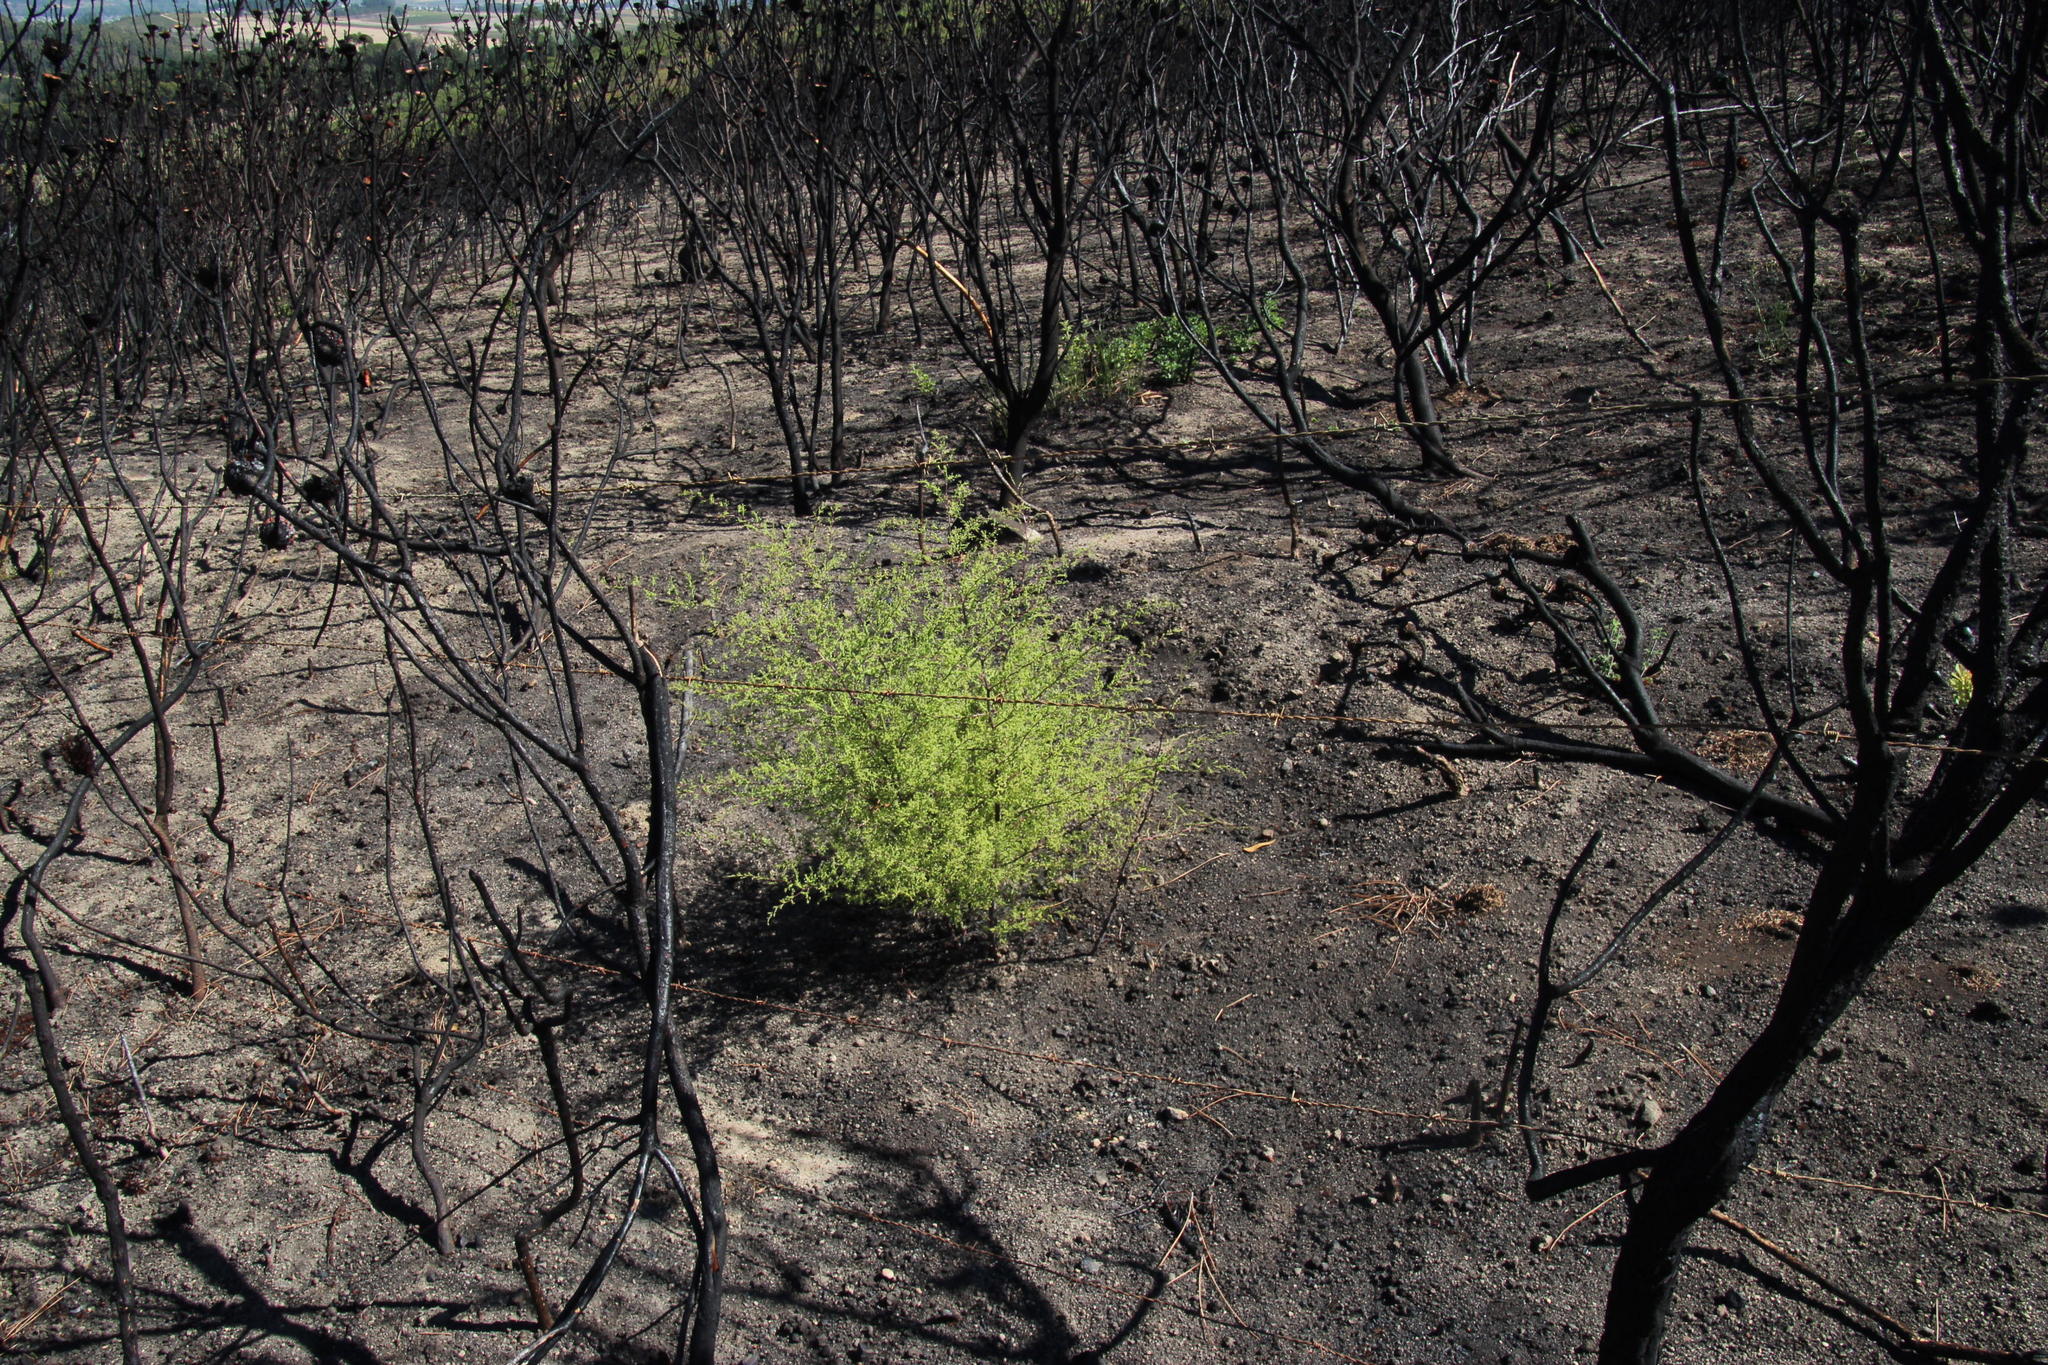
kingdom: Plantae
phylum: Tracheophyta
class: Liliopsida
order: Asparagales
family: Asparagaceae
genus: Asparagus
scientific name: Asparagus rubicundus
